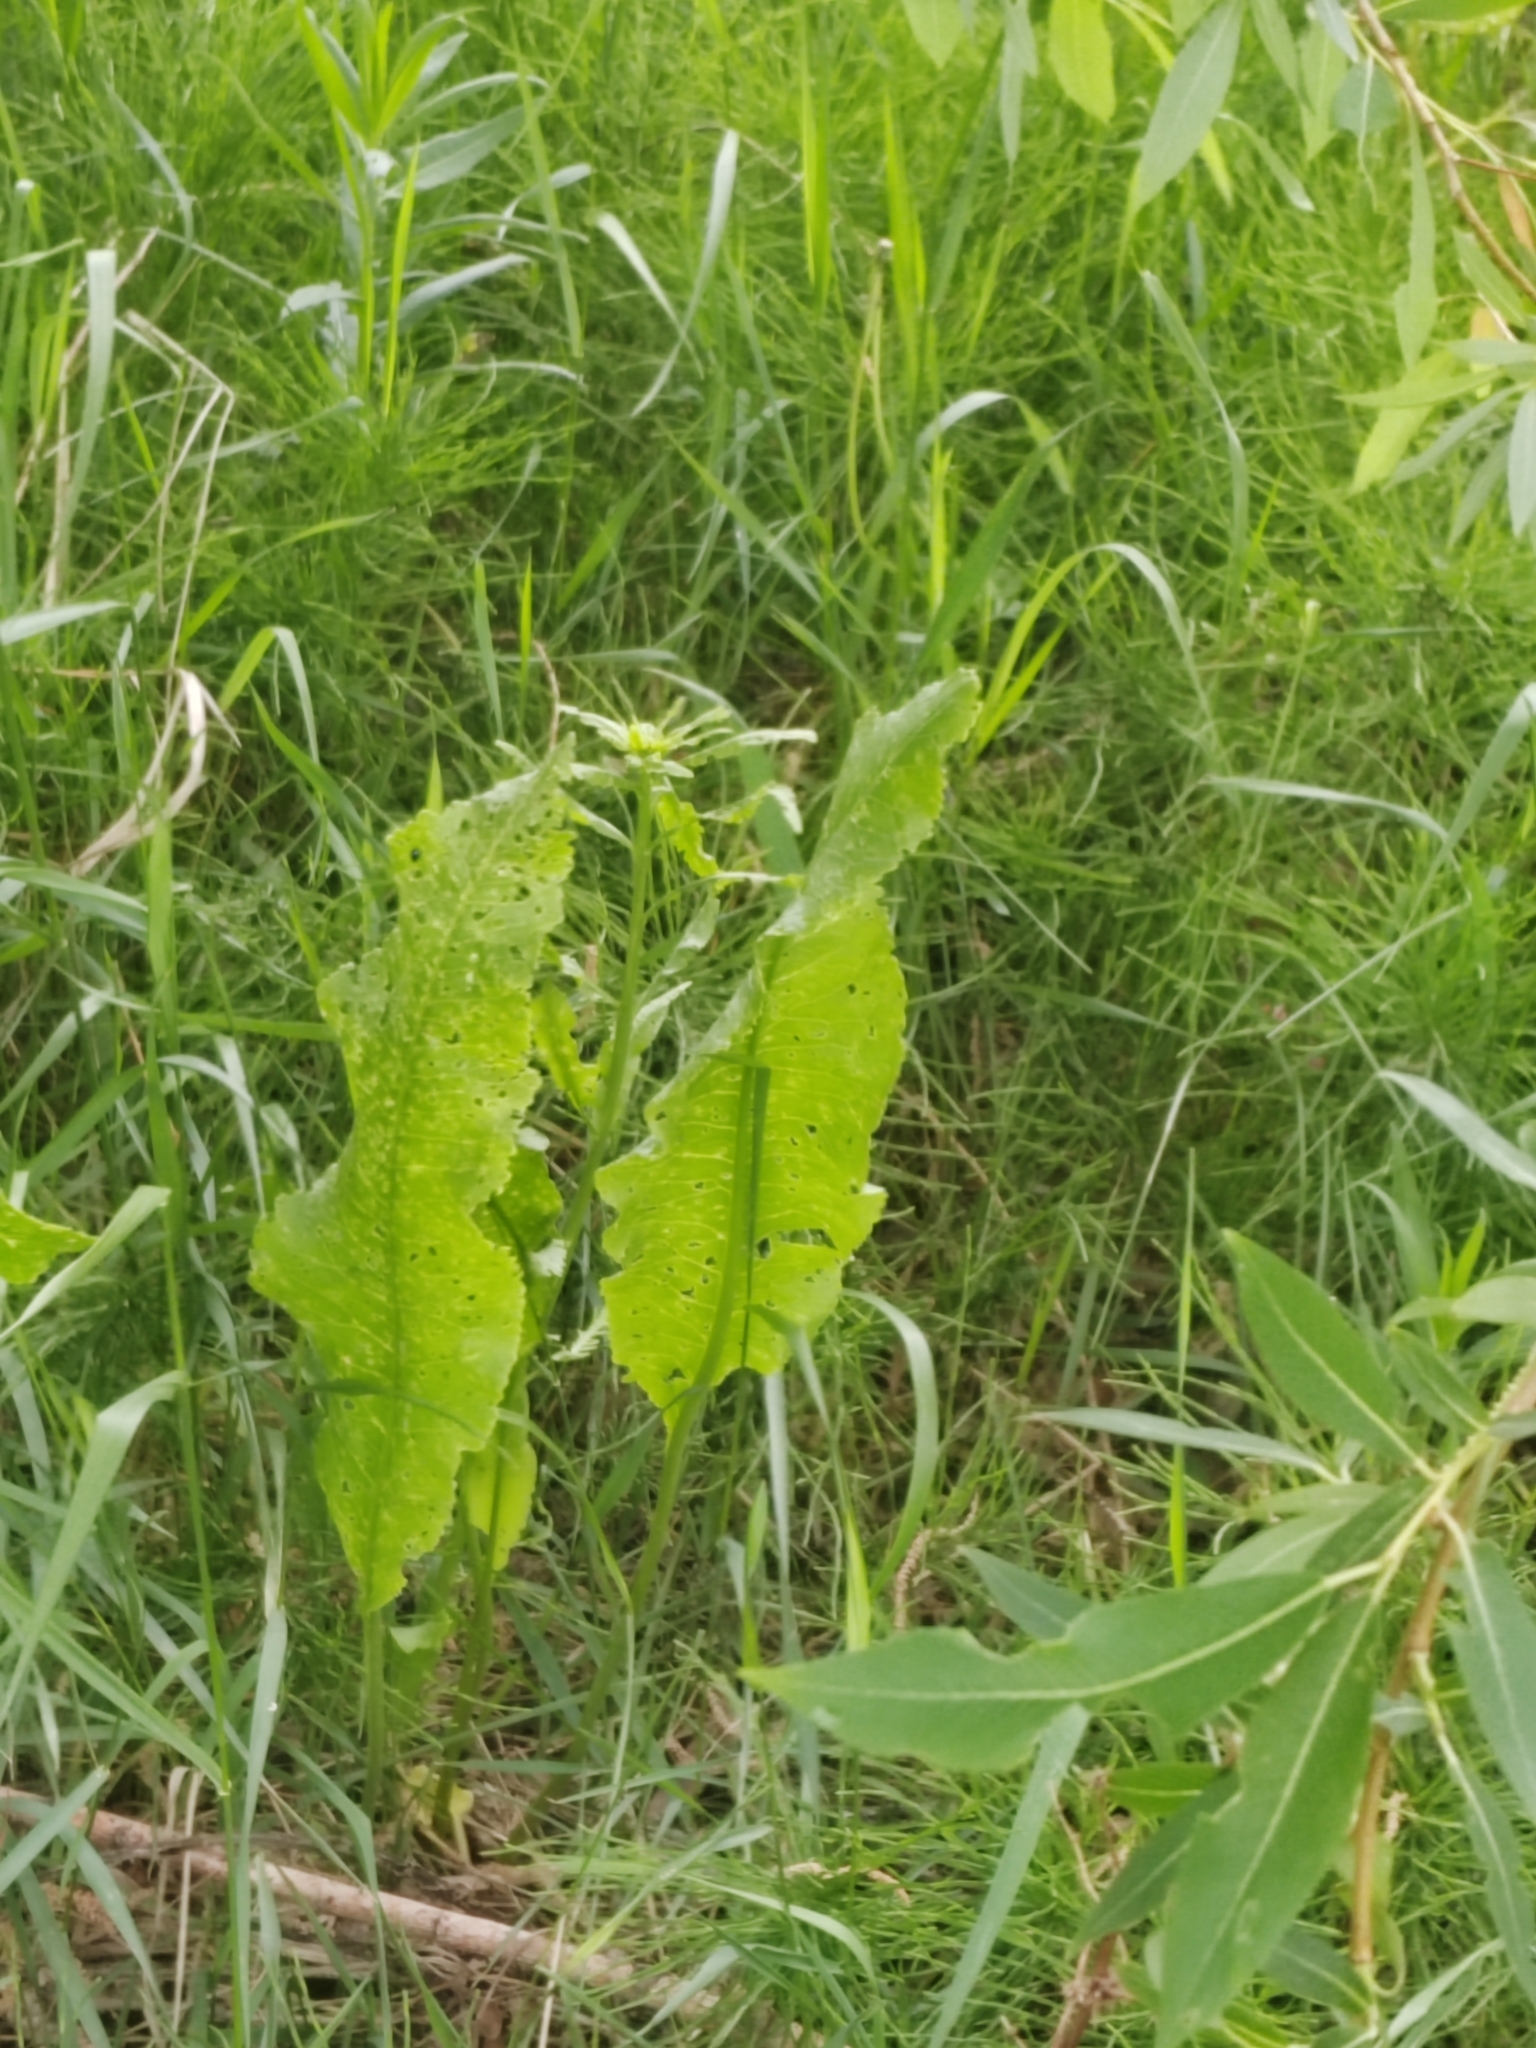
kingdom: Plantae
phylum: Tracheophyta
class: Magnoliopsida
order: Brassicales
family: Brassicaceae
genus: Armoracia
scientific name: Armoracia rusticana
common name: Horseradish
